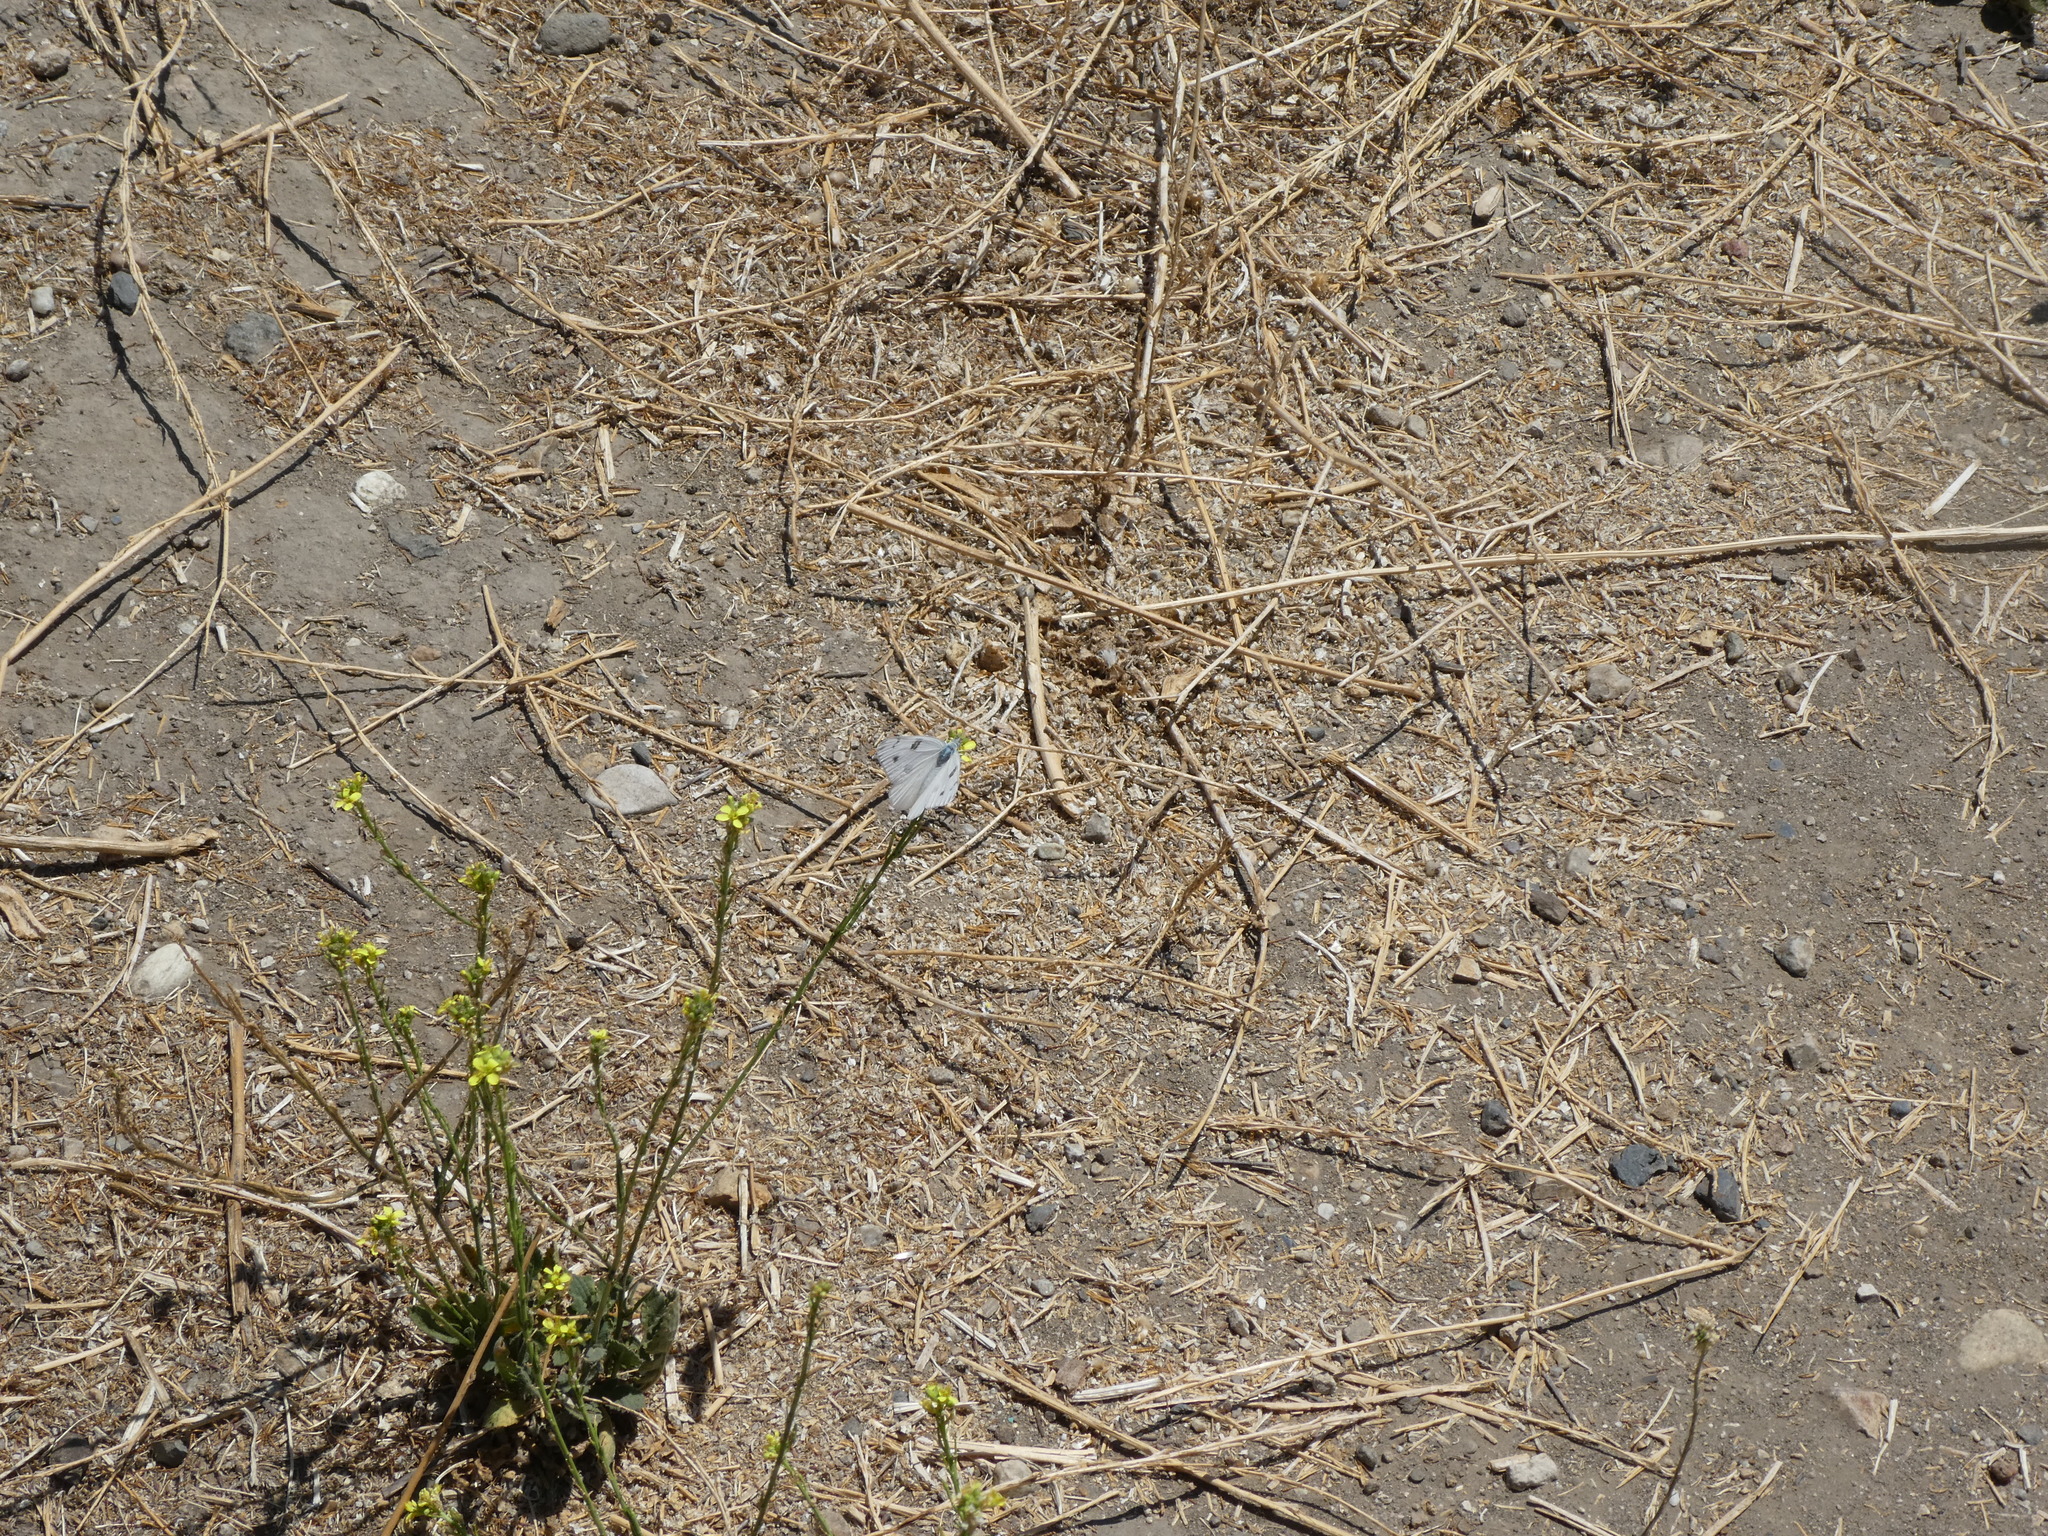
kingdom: Animalia
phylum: Arthropoda
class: Insecta
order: Lepidoptera
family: Pieridae
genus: Pontia
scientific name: Pontia protodice
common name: Checkered white
